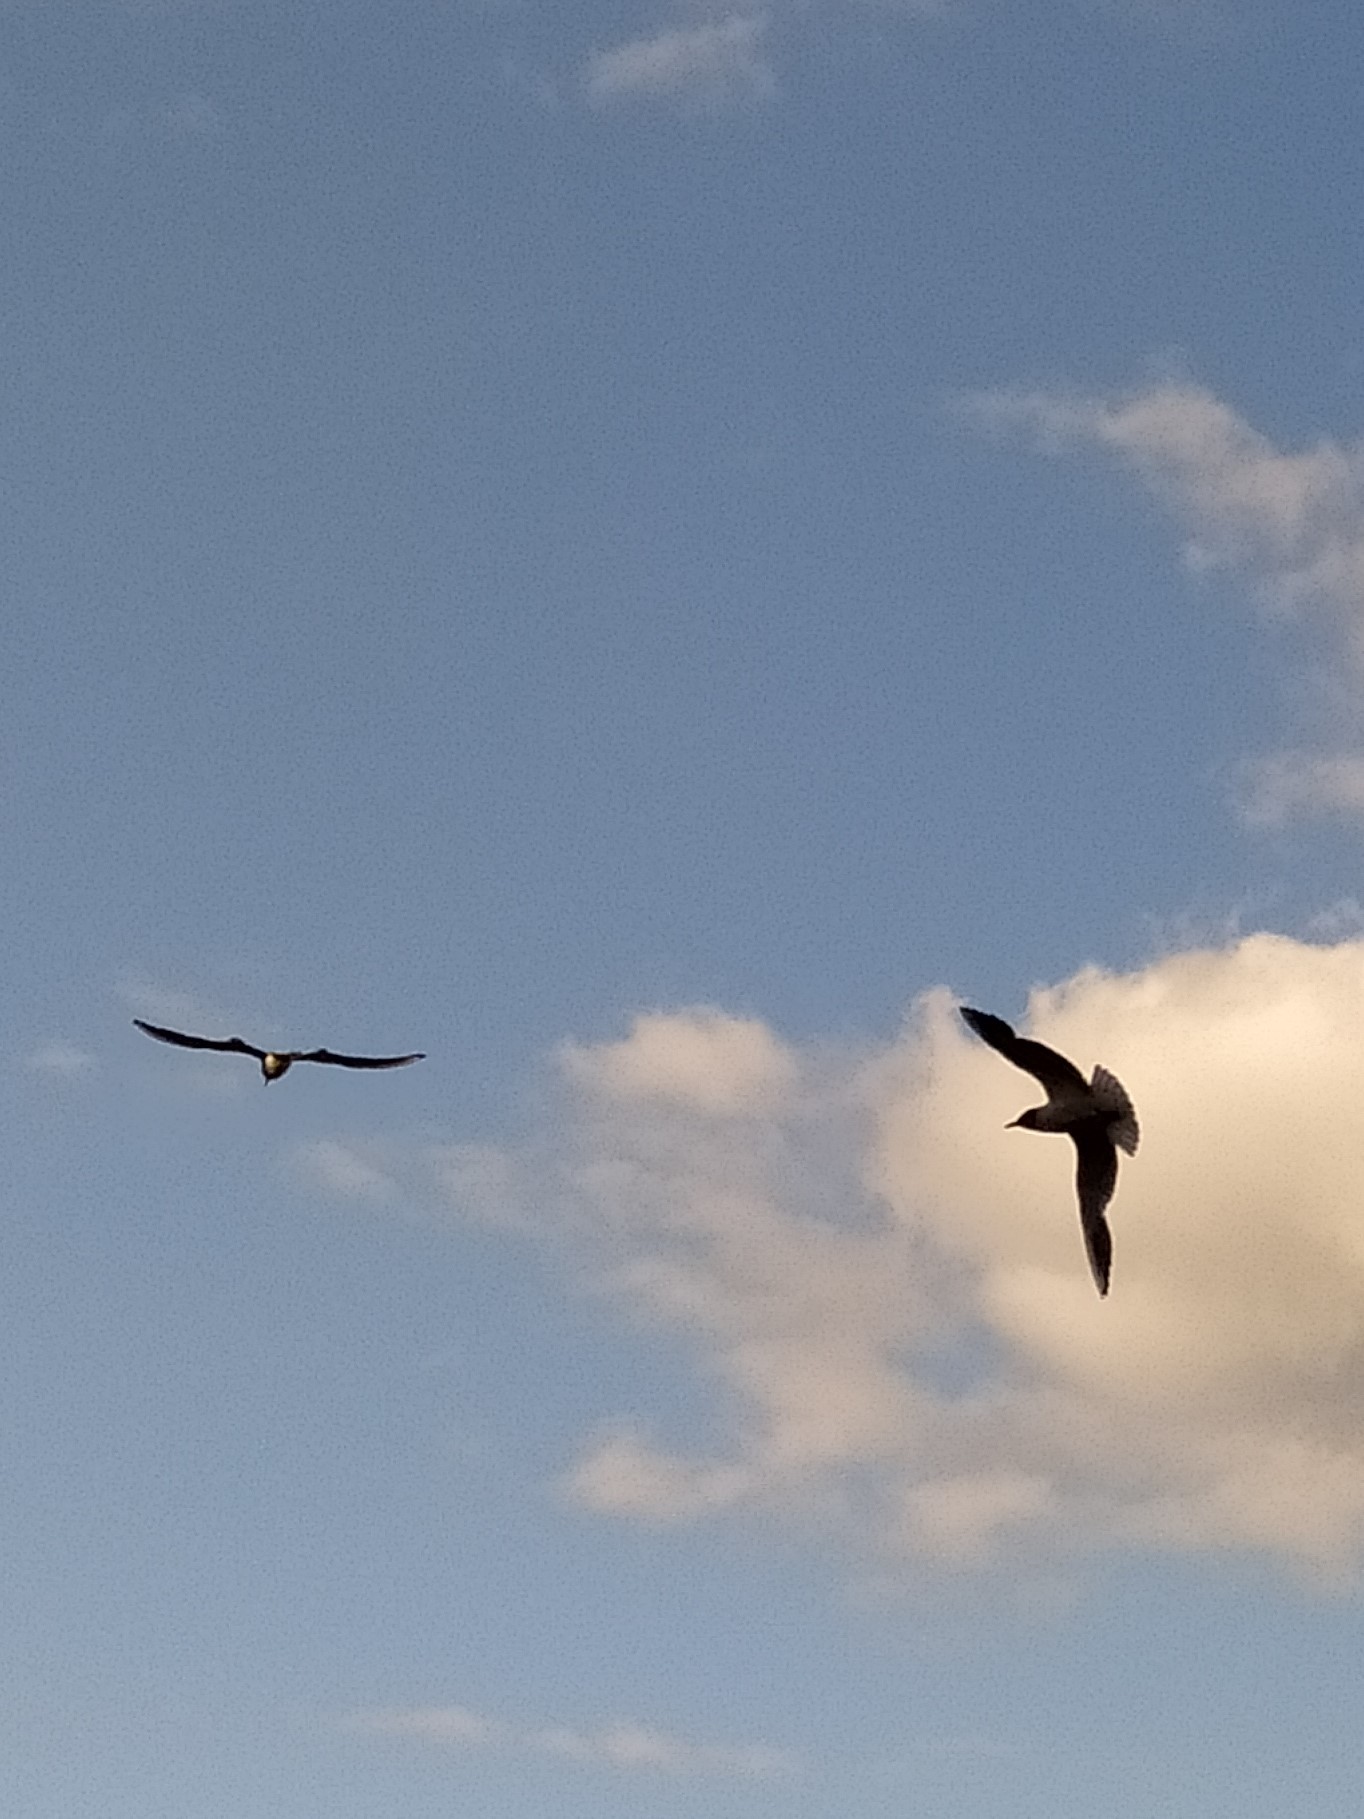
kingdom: Animalia
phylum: Chordata
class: Aves
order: Charadriiformes
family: Laridae
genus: Chroicocephalus
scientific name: Chroicocephalus ridibundus
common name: Black-headed gull
